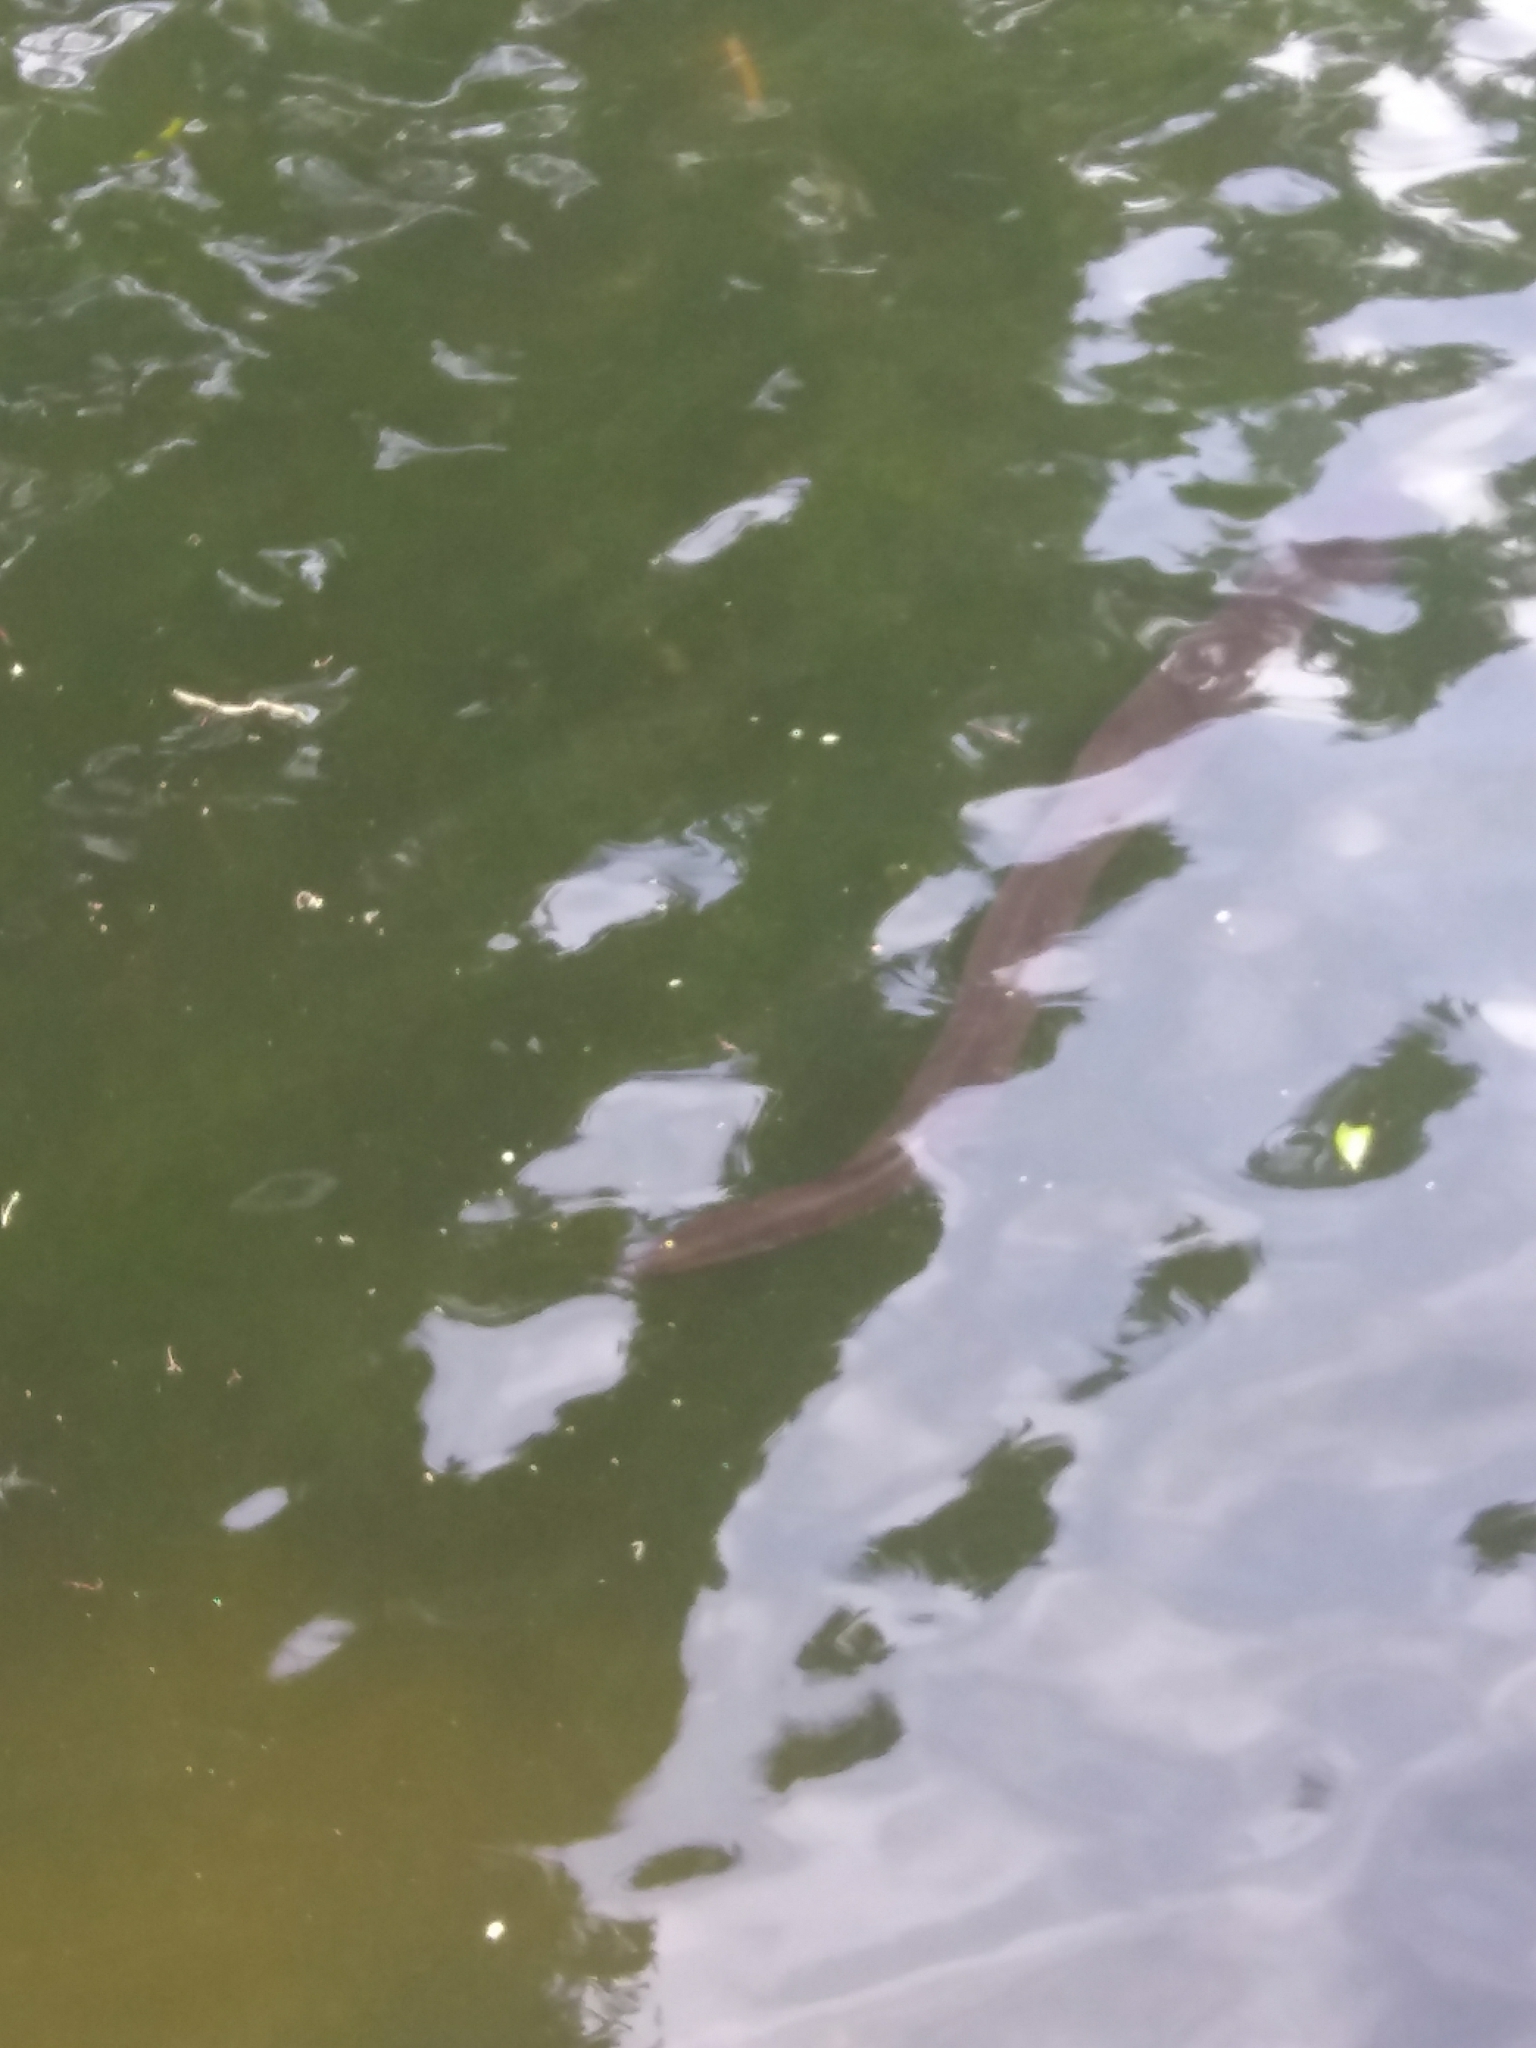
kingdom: Animalia
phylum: Chordata
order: Anguilliformes
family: Anguillidae
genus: Anguilla
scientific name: Anguilla australis
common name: Shortfin eel
